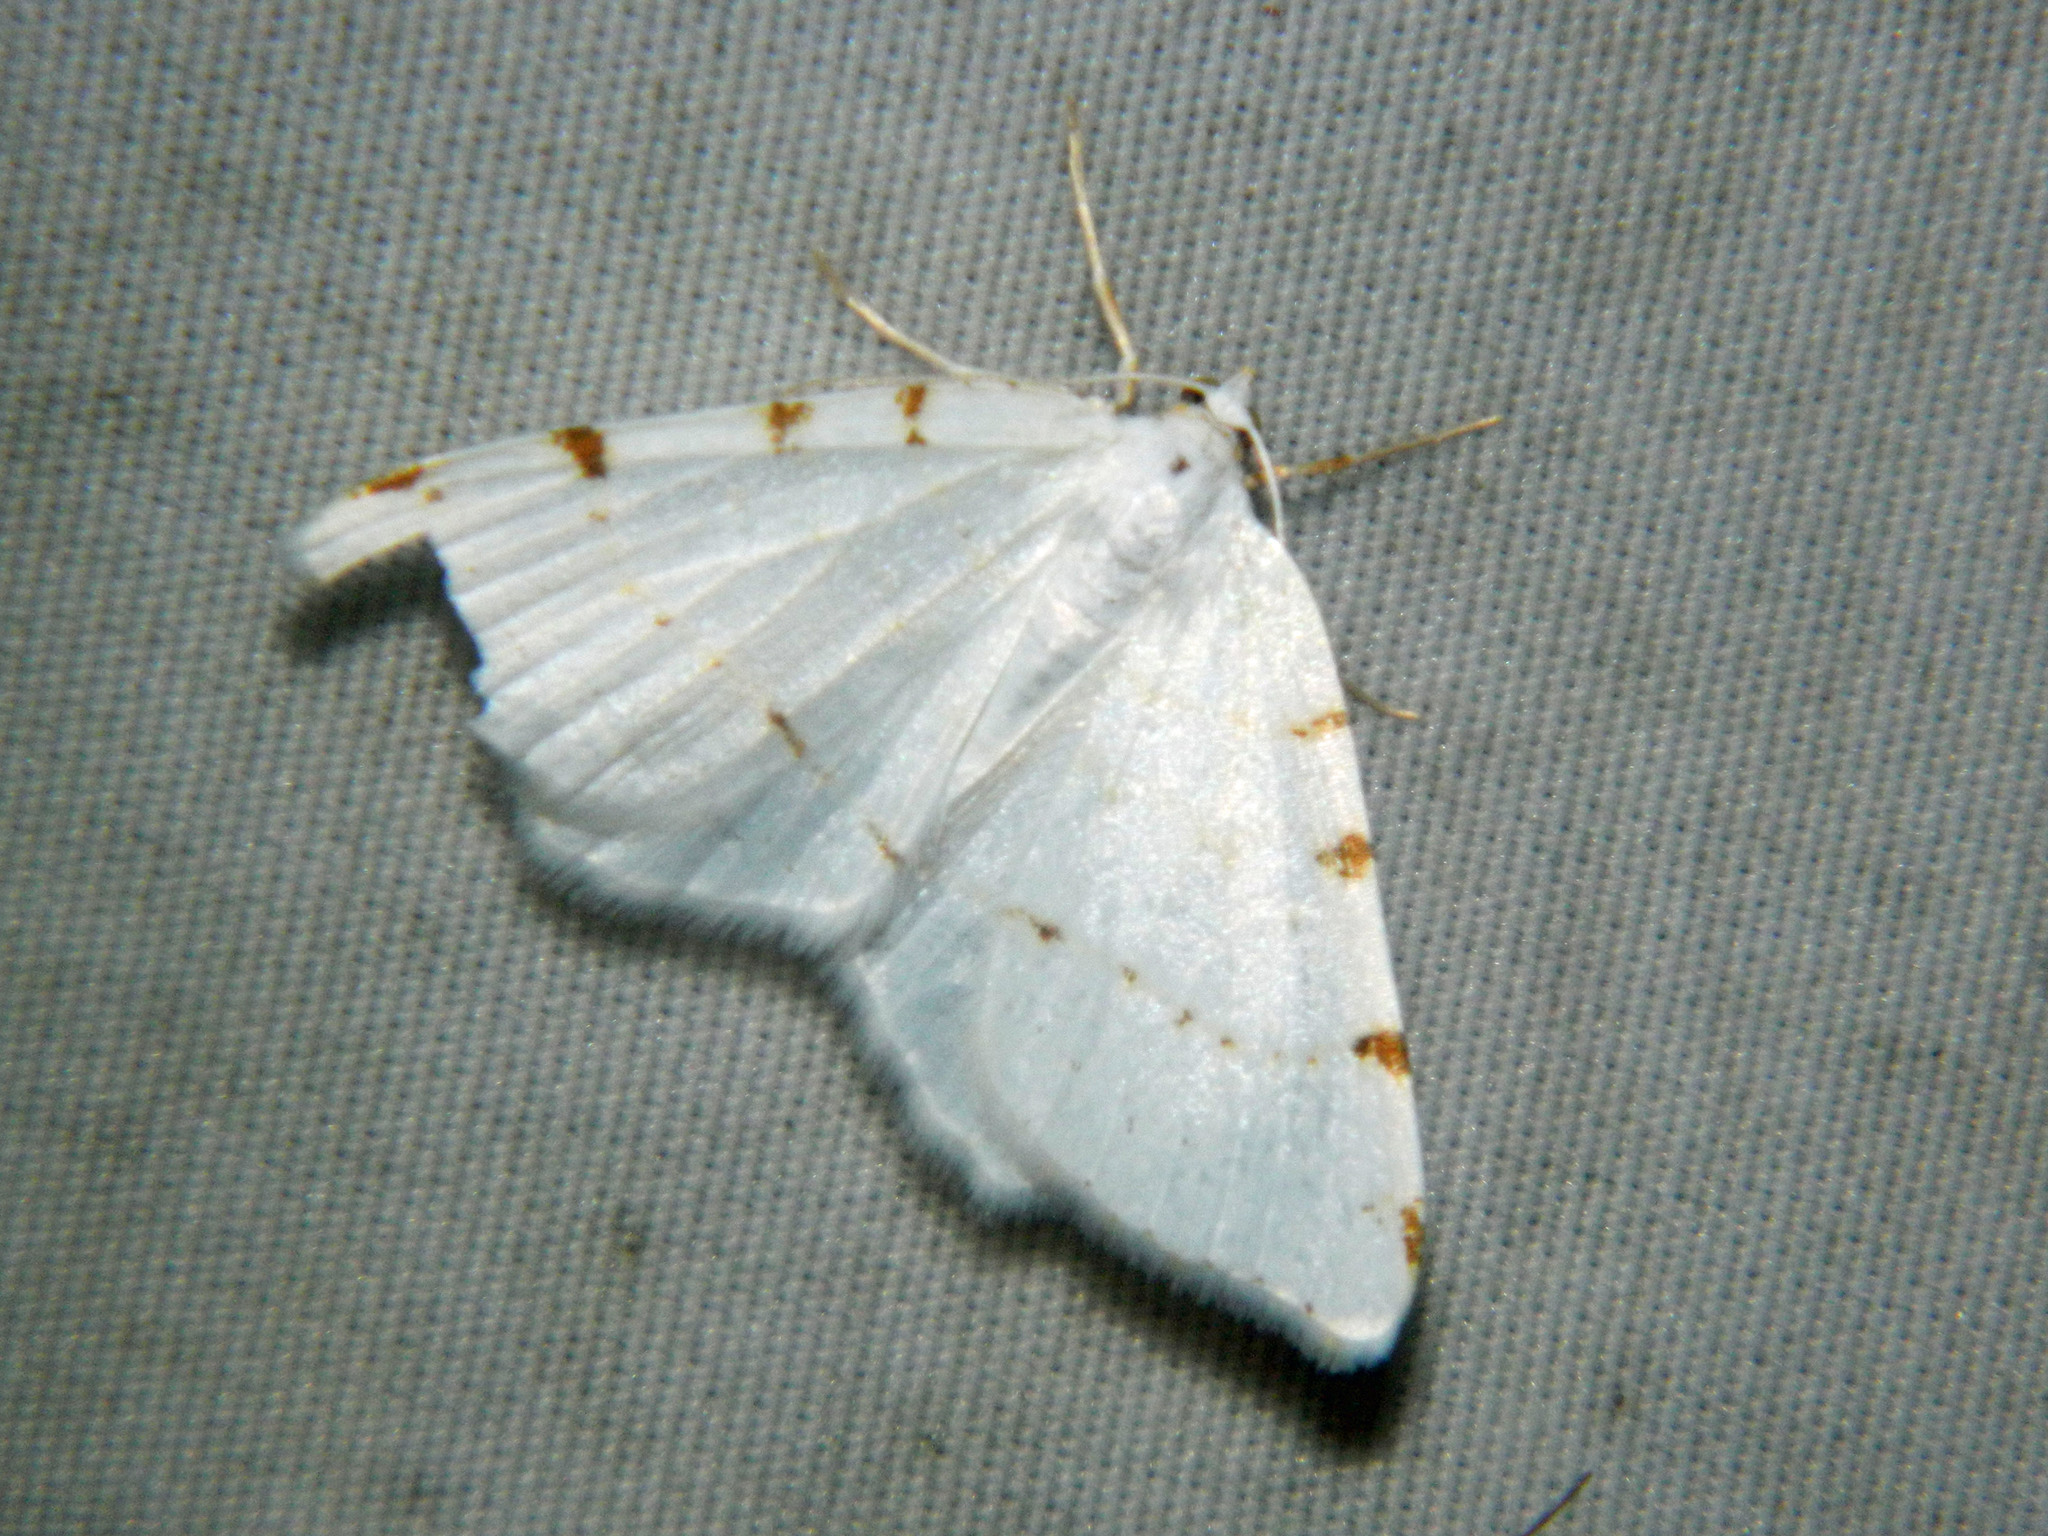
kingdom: Animalia
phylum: Arthropoda
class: Insecta
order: Lepidoptera
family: Geometridae
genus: Macaria
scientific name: Macaria pustularia
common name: Lesser maple spanworm moth
